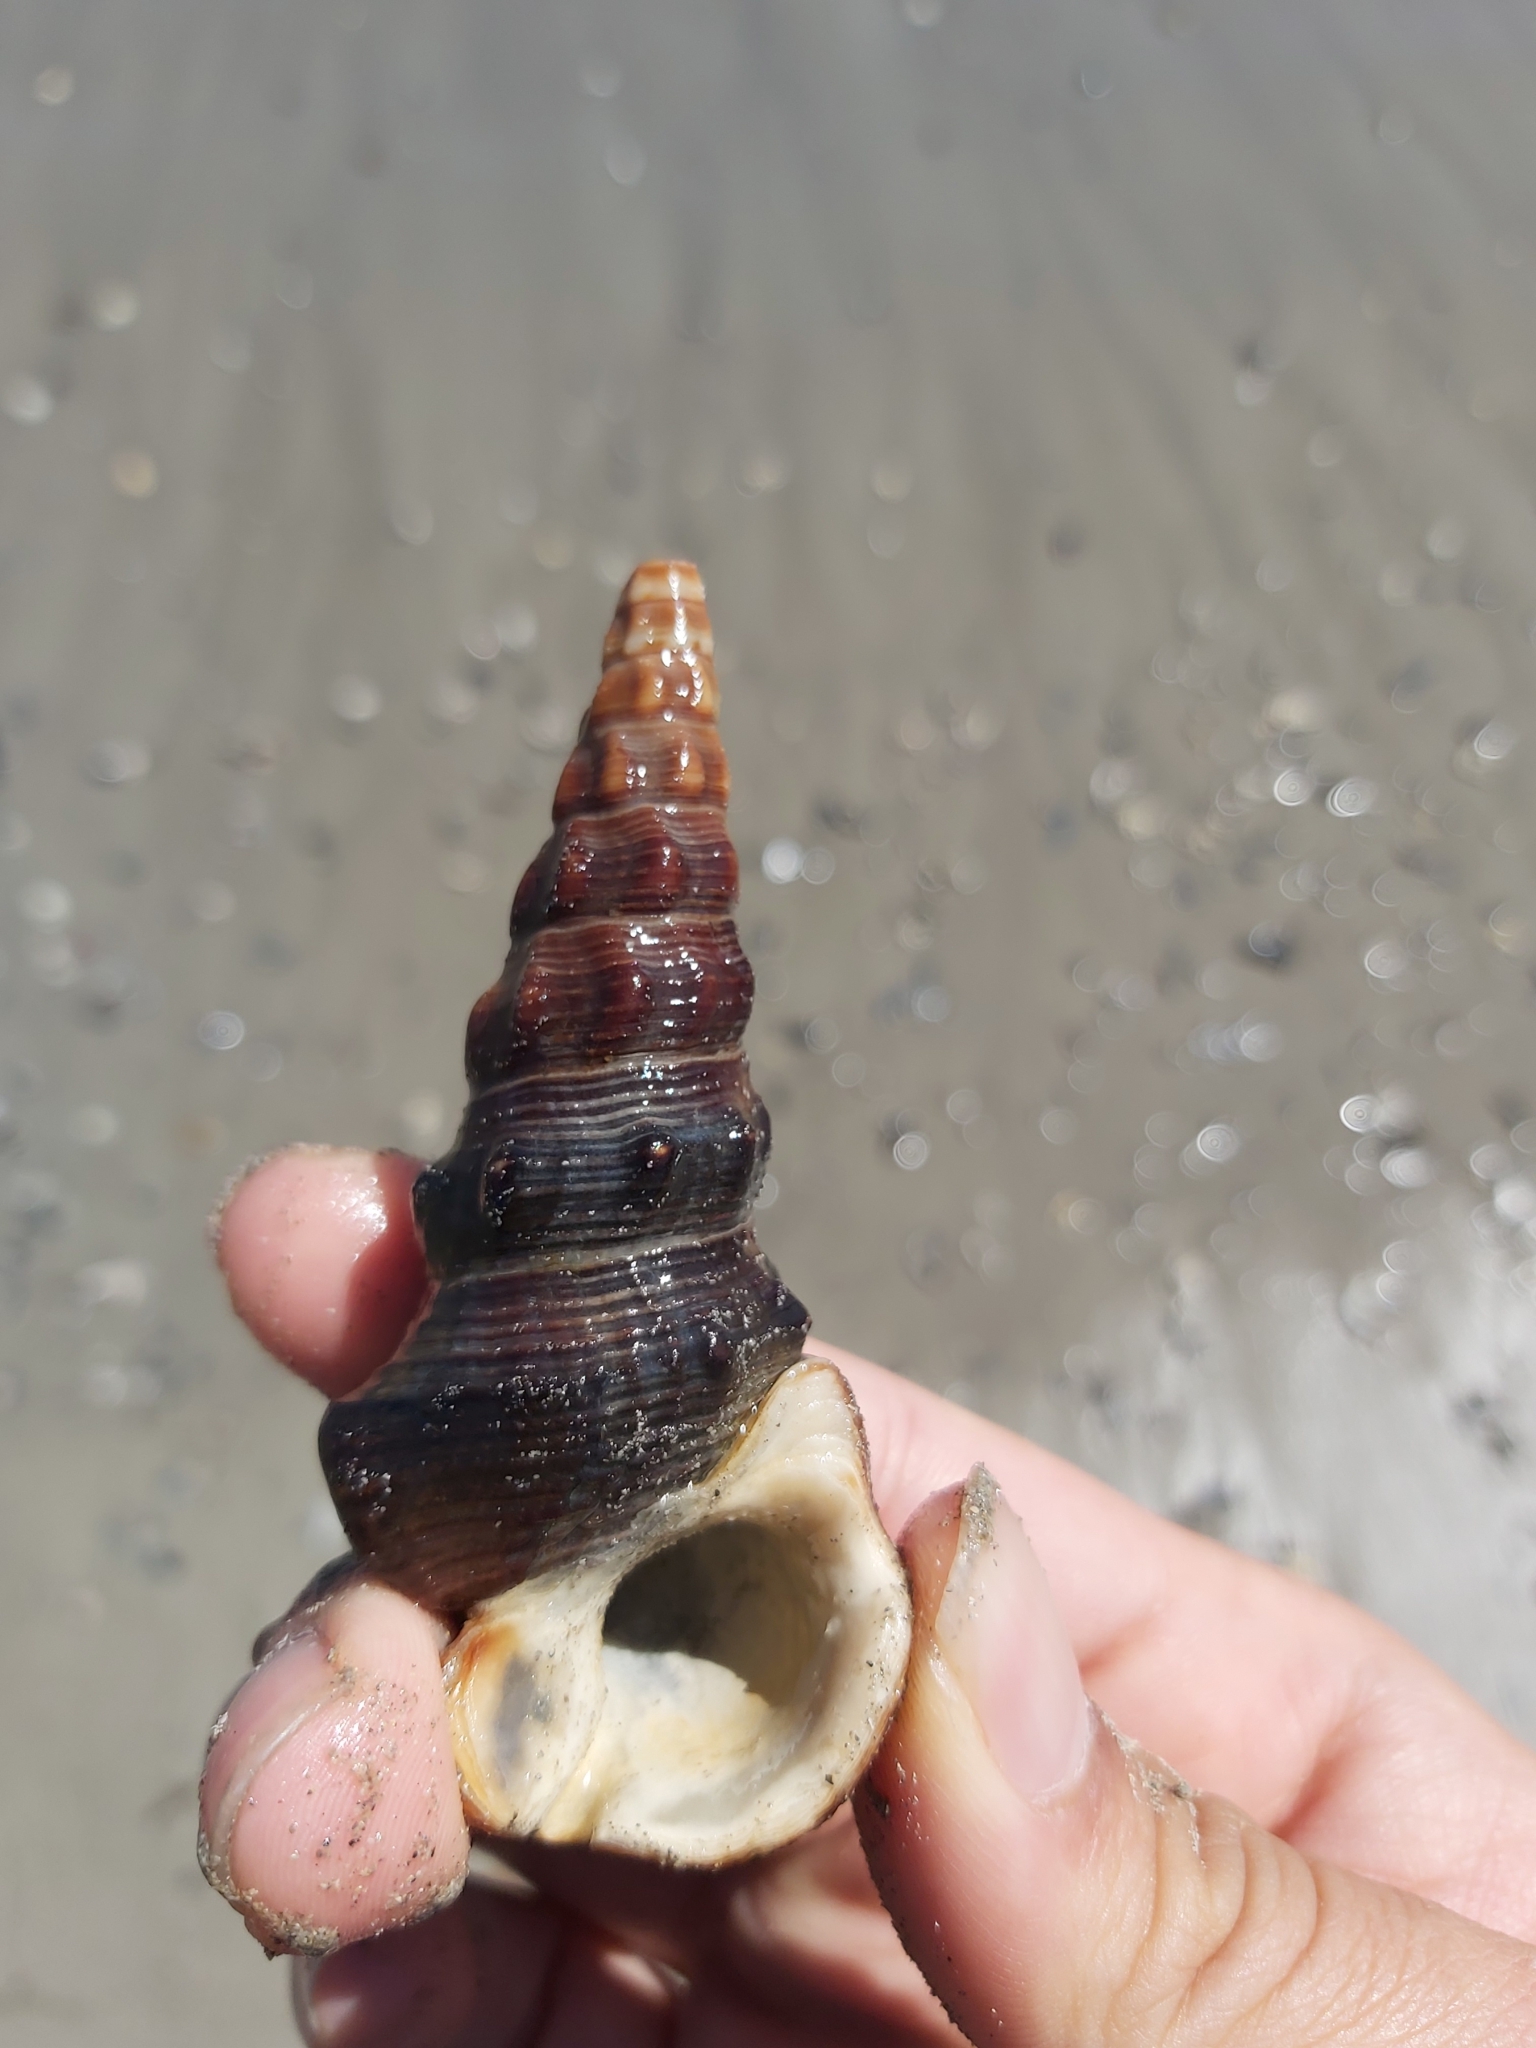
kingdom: Animalia
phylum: Mollusca
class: Gastropoda
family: Batillariidae
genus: Pyrazus
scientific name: Pyrazus ebeninus
